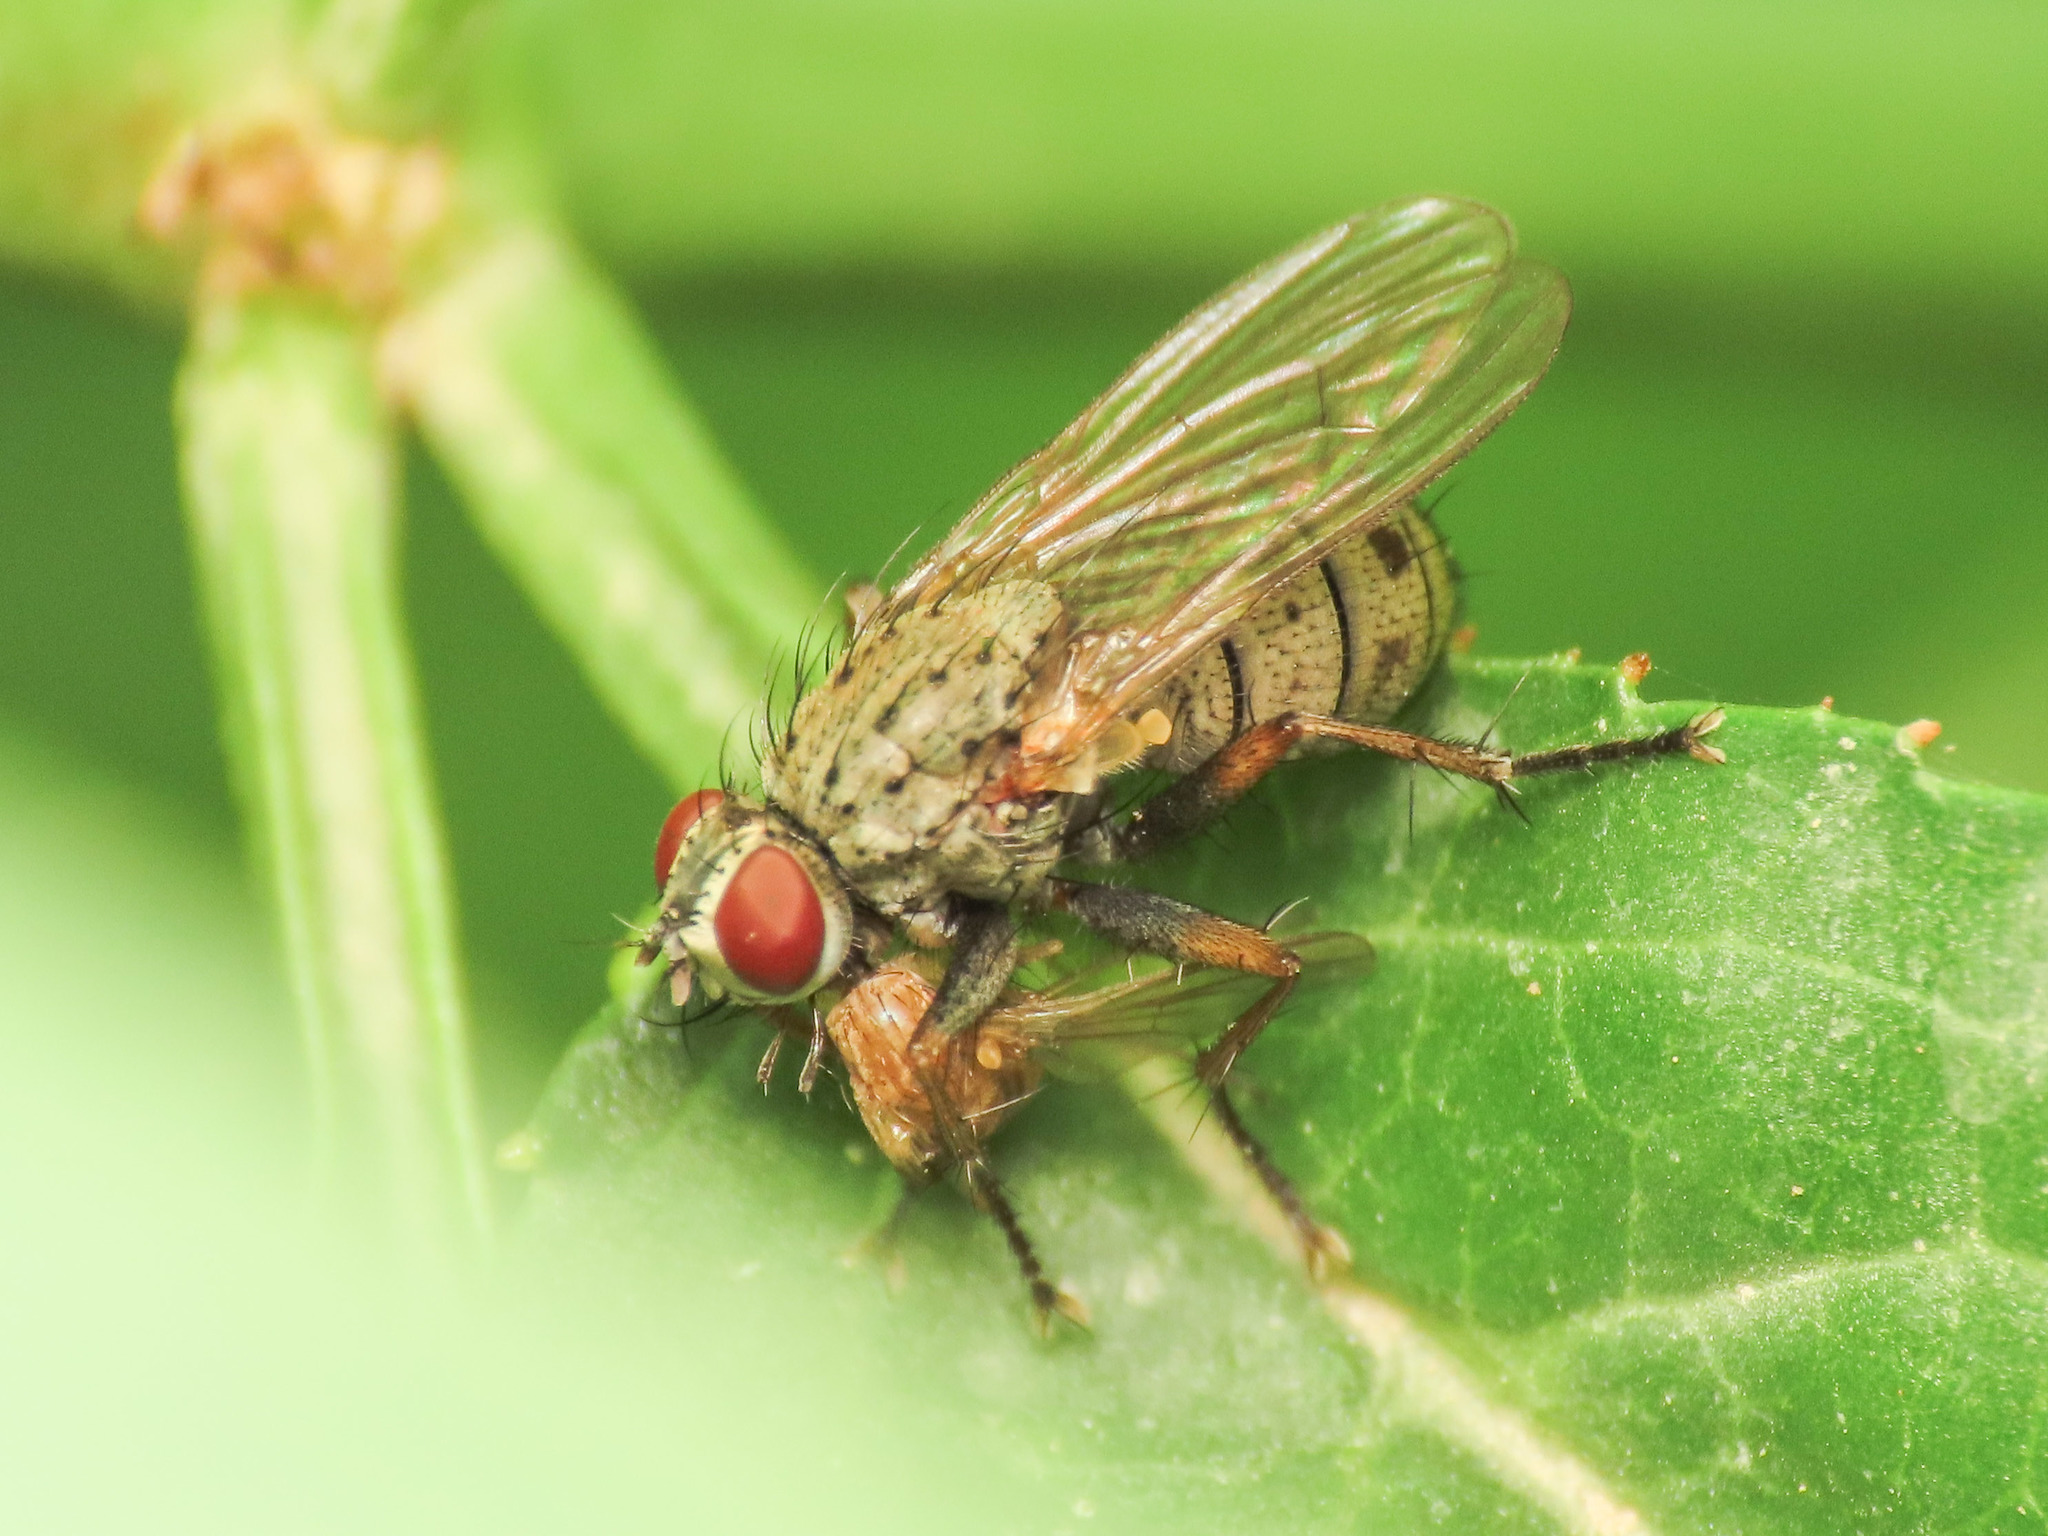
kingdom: Animalia
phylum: Arthropoda
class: Insecta
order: Diptera
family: Muscidae
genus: Coenosia
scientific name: Coenosia tigrina
